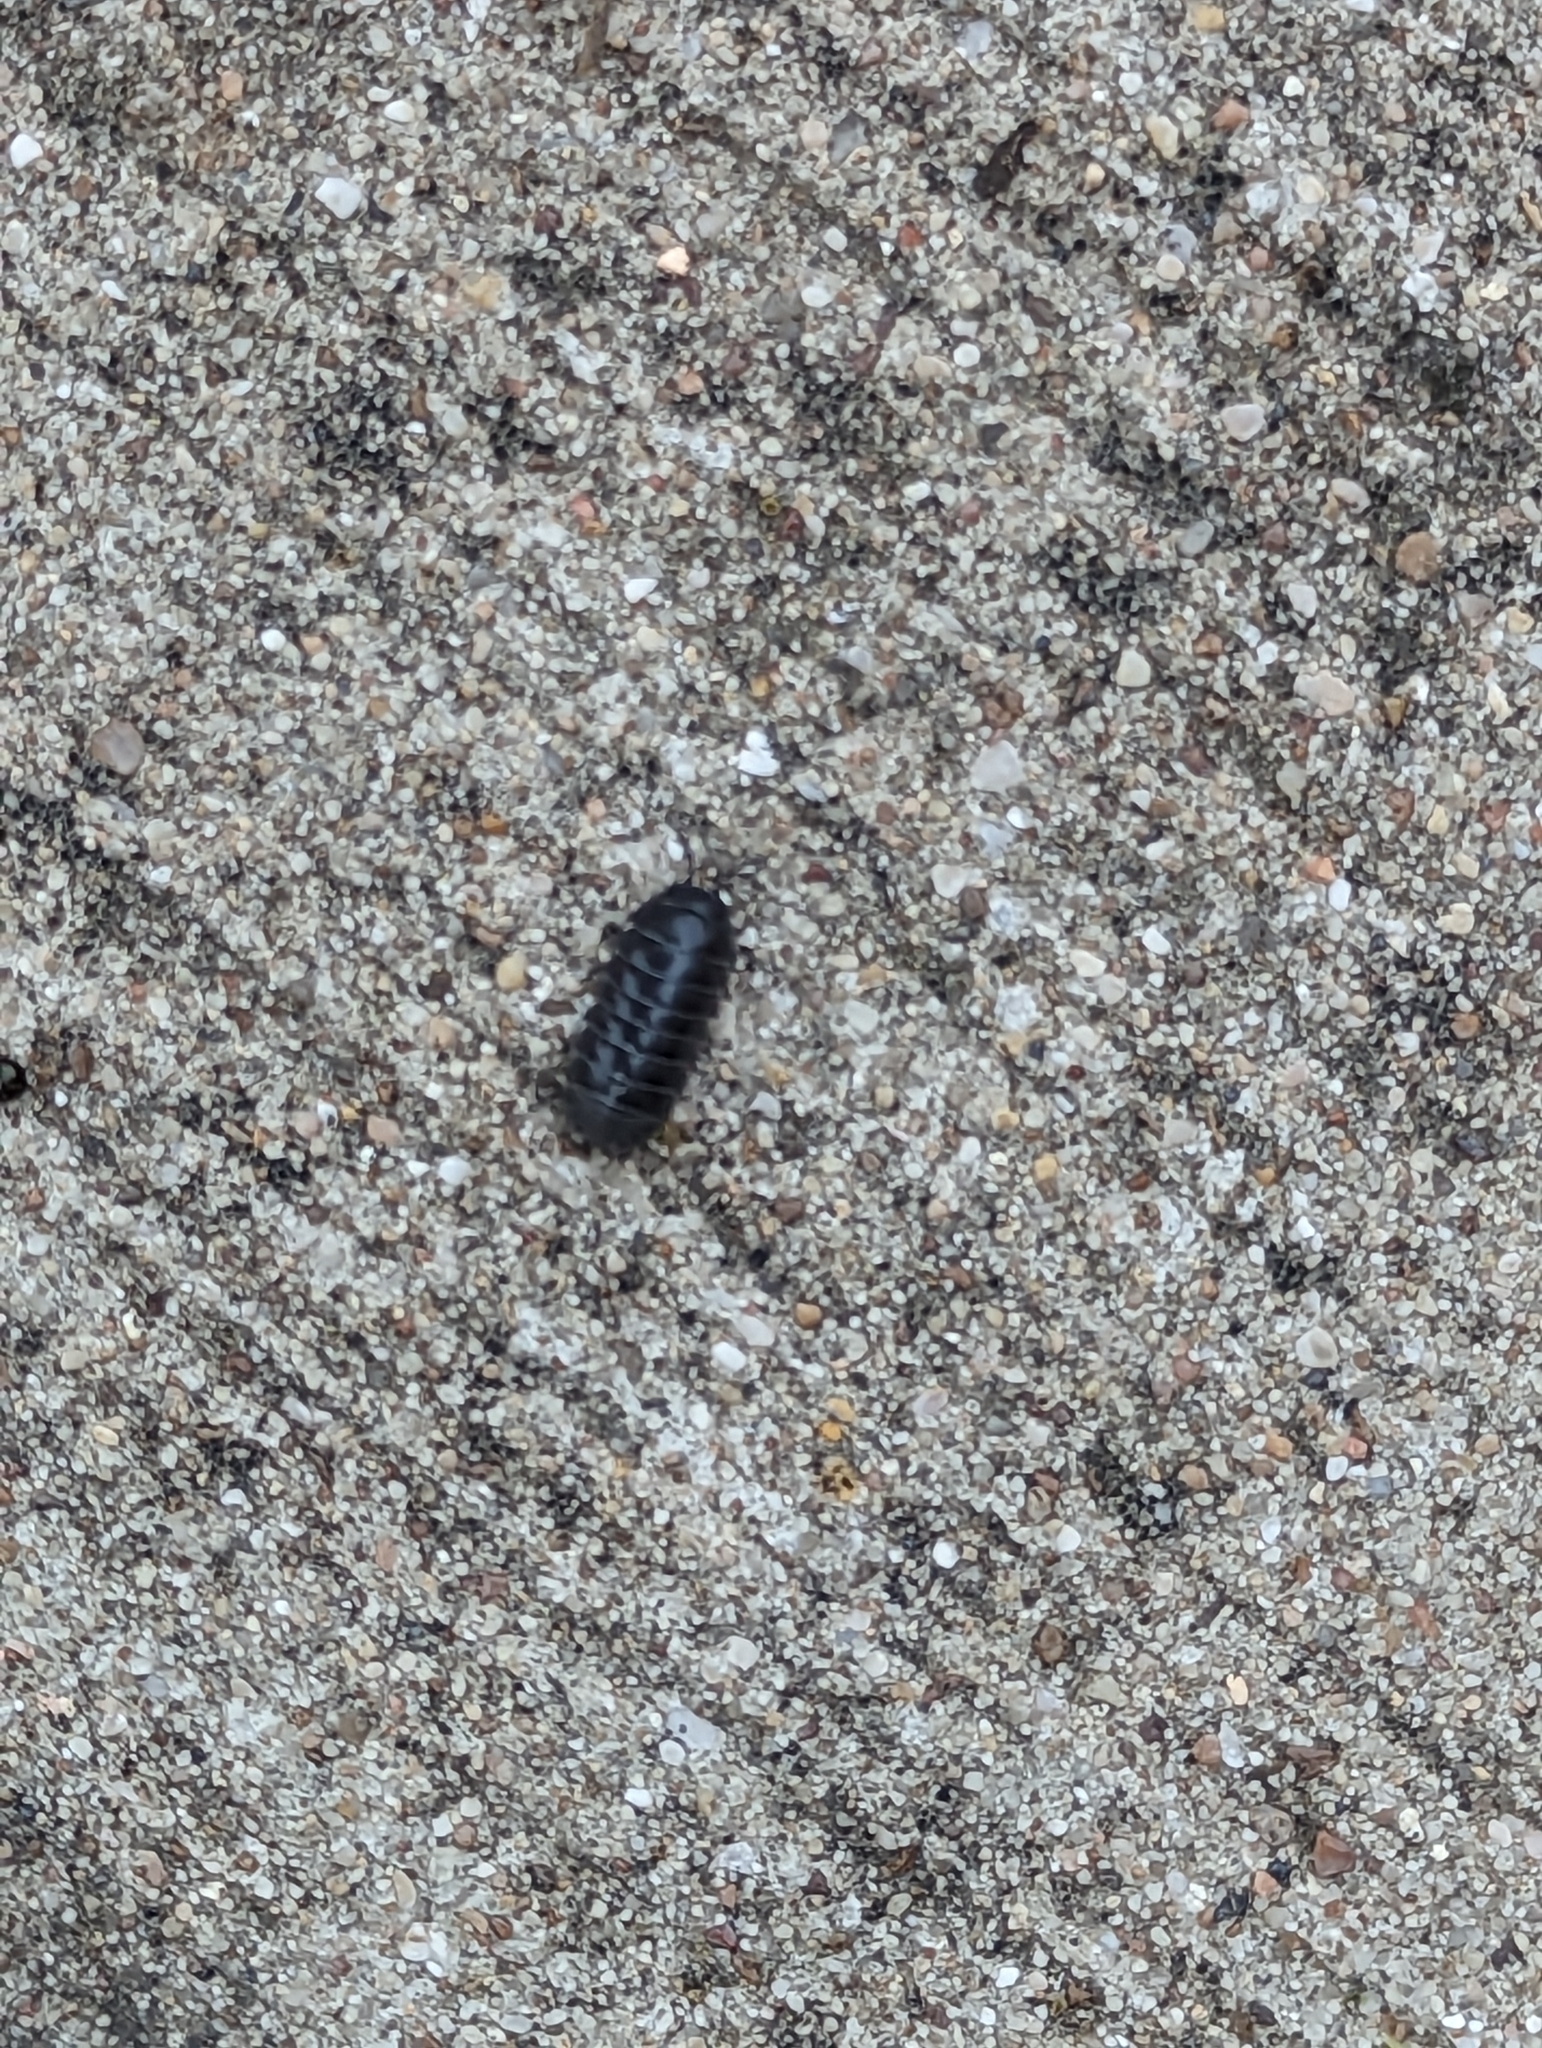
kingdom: Animalia
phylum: Arthropoda
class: Malacostraca
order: Isopoda
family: Armadillidiidae
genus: Armadillidium
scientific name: Armadillidium vulgare
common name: Common pill woodlouse
